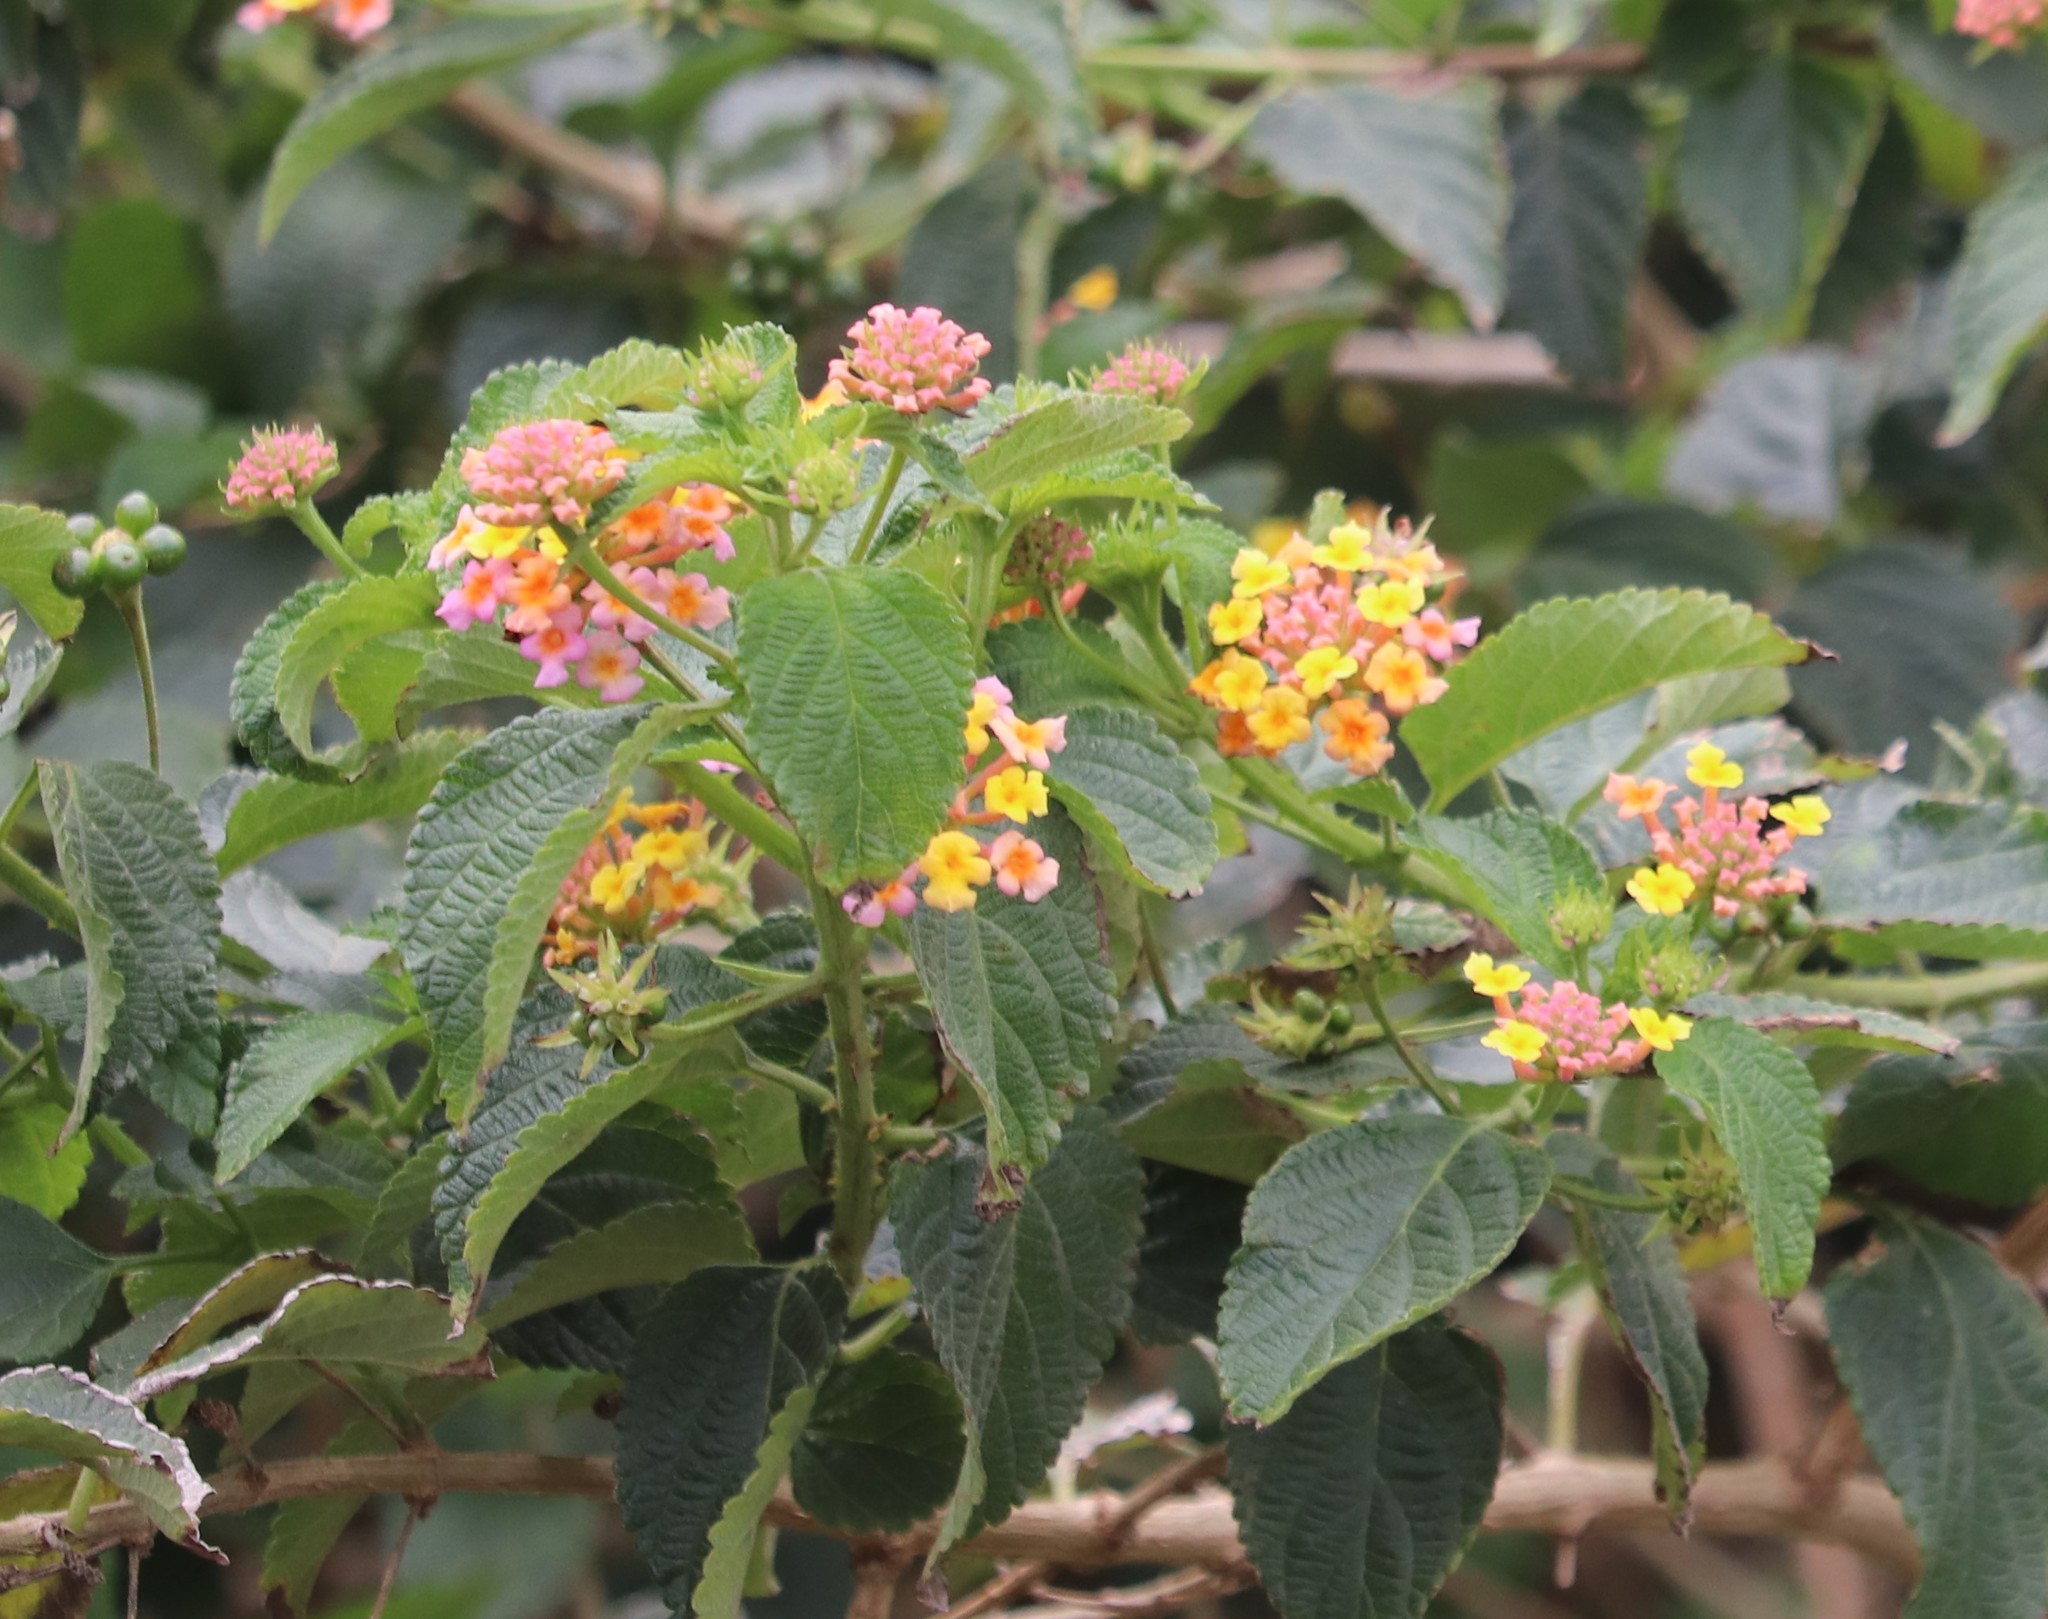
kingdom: Plantae
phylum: Tracheophyta
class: Magnoliopsida
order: Lamiales
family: Verbenaceae
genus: Lantana
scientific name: Lantana camara
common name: Lantana
